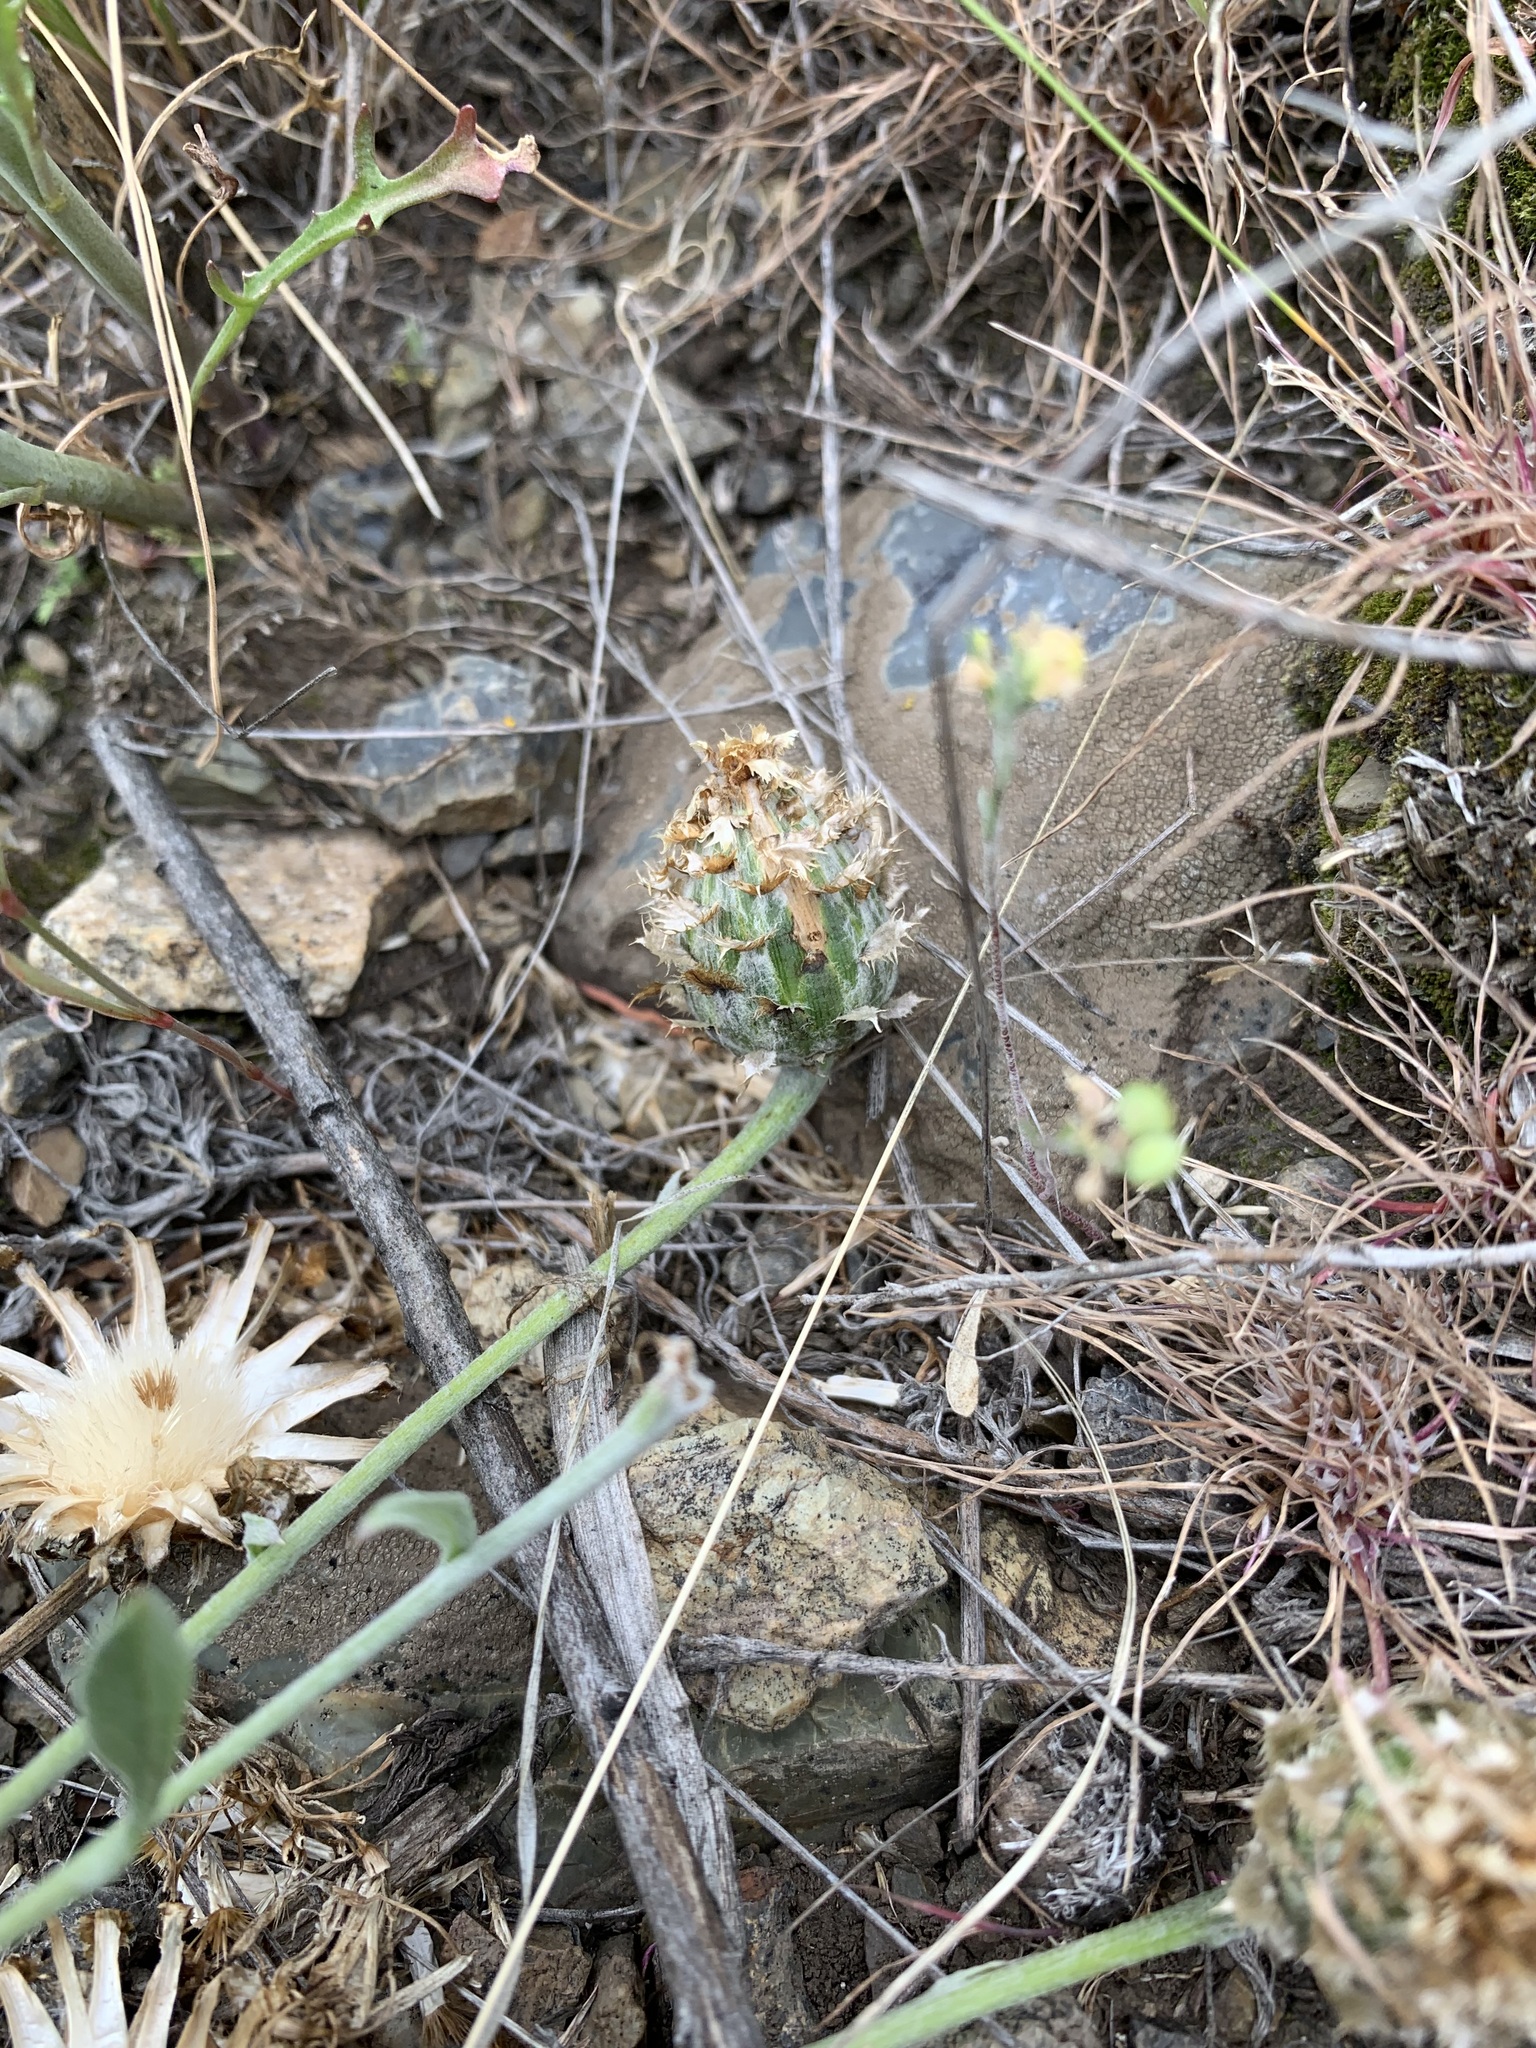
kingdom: Plantae
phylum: Tracheophyta
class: Magnoliopsida
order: Asterales
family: Asteraceae
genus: Psephellus
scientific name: Psephellus marschallianus
